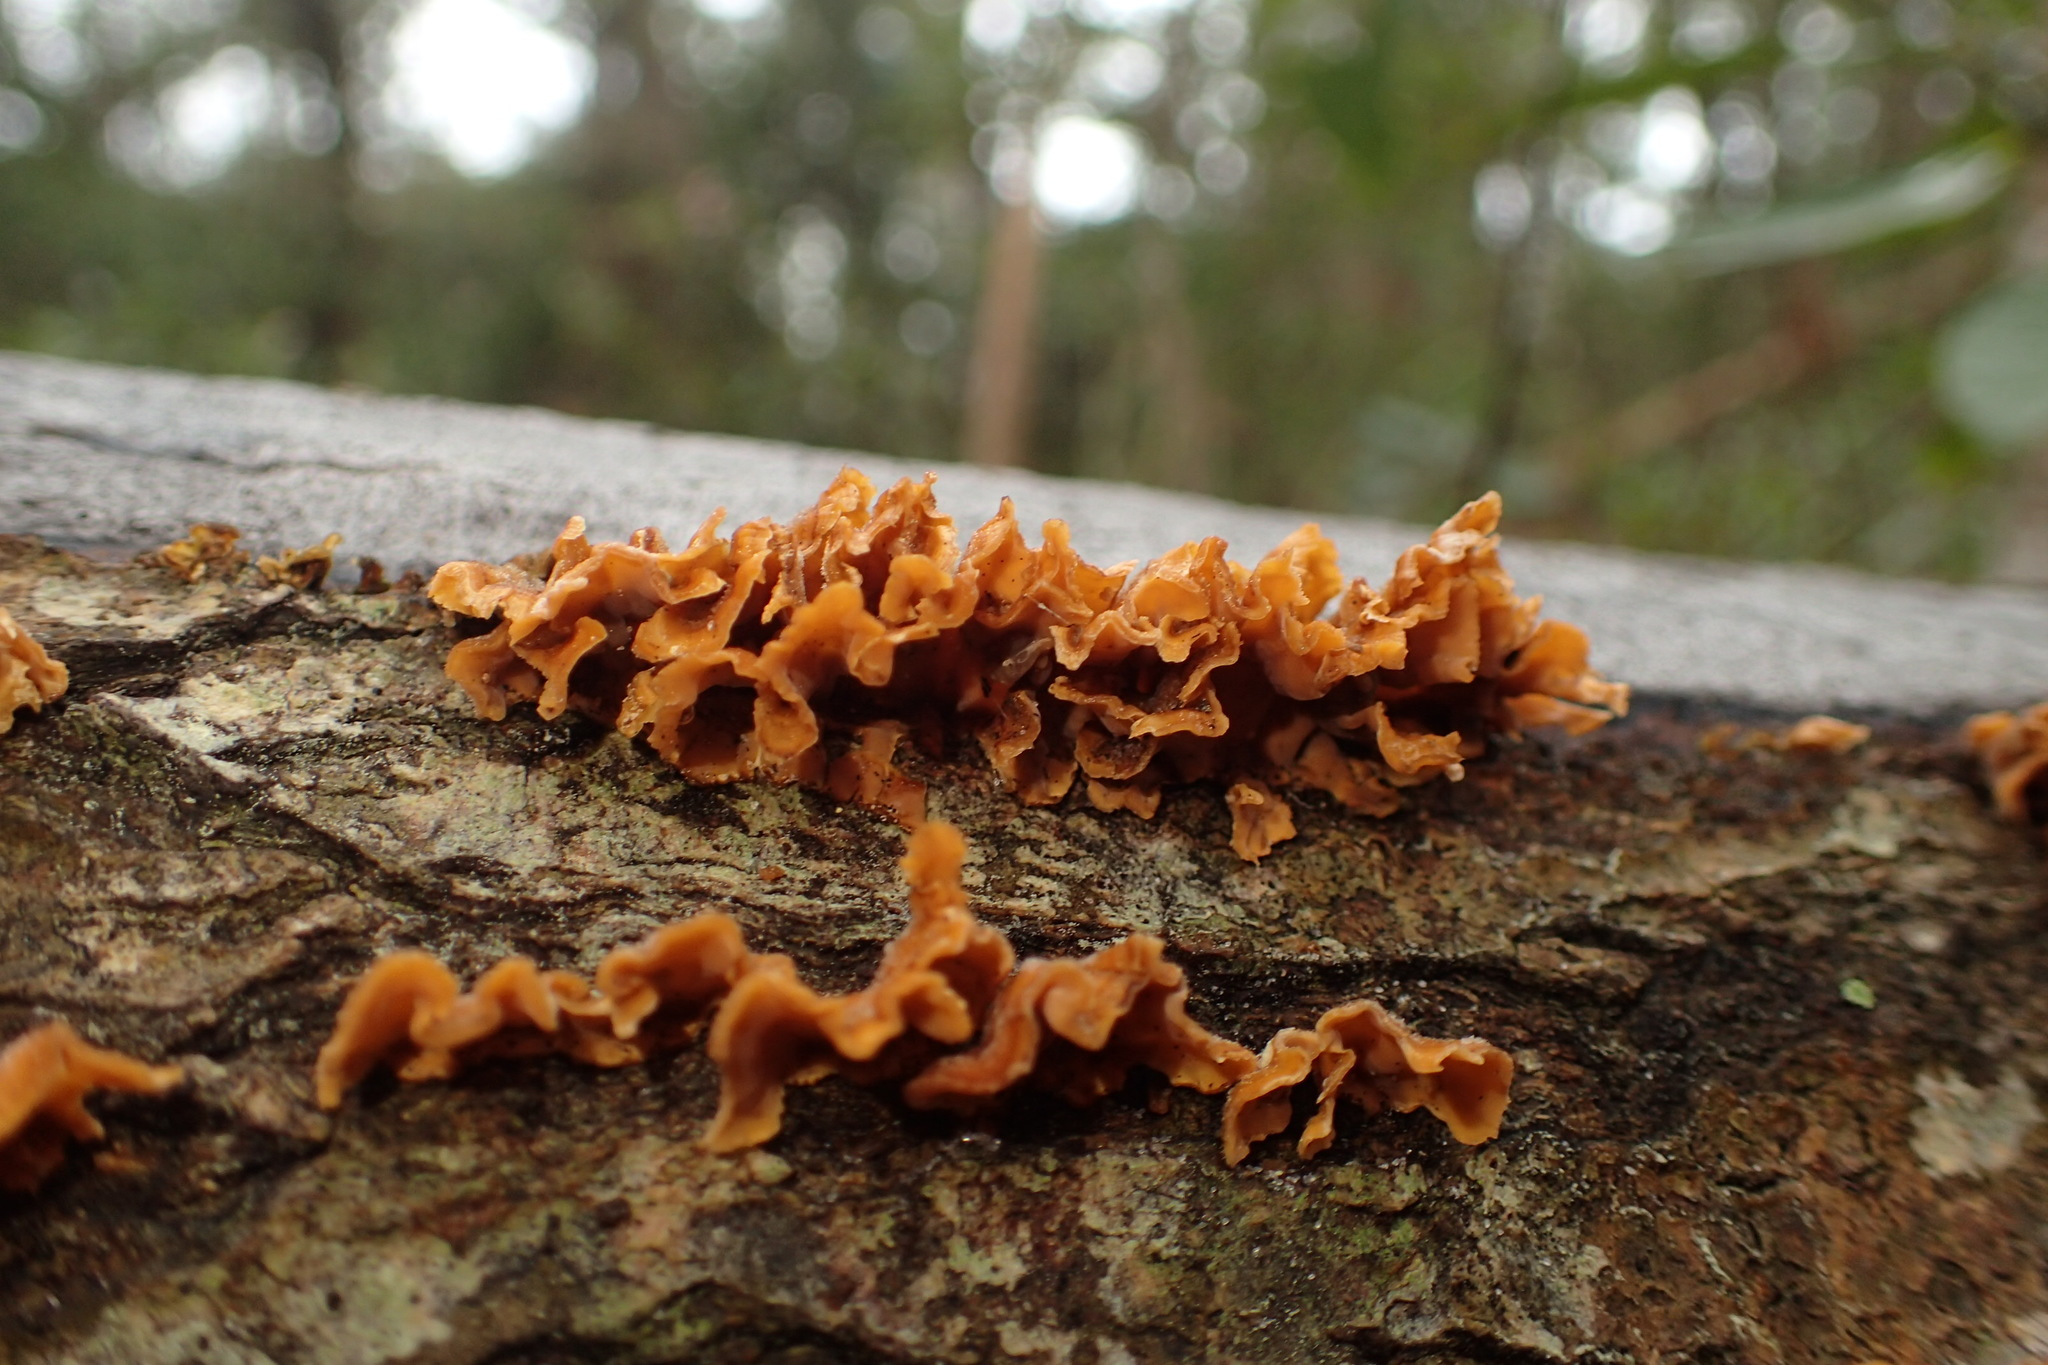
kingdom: Fungi
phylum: Basidiomycota
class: Agaricomycetes
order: Russulales
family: Stereaceae
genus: Stereum
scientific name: Stereum complicatum
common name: Crowded parchment
